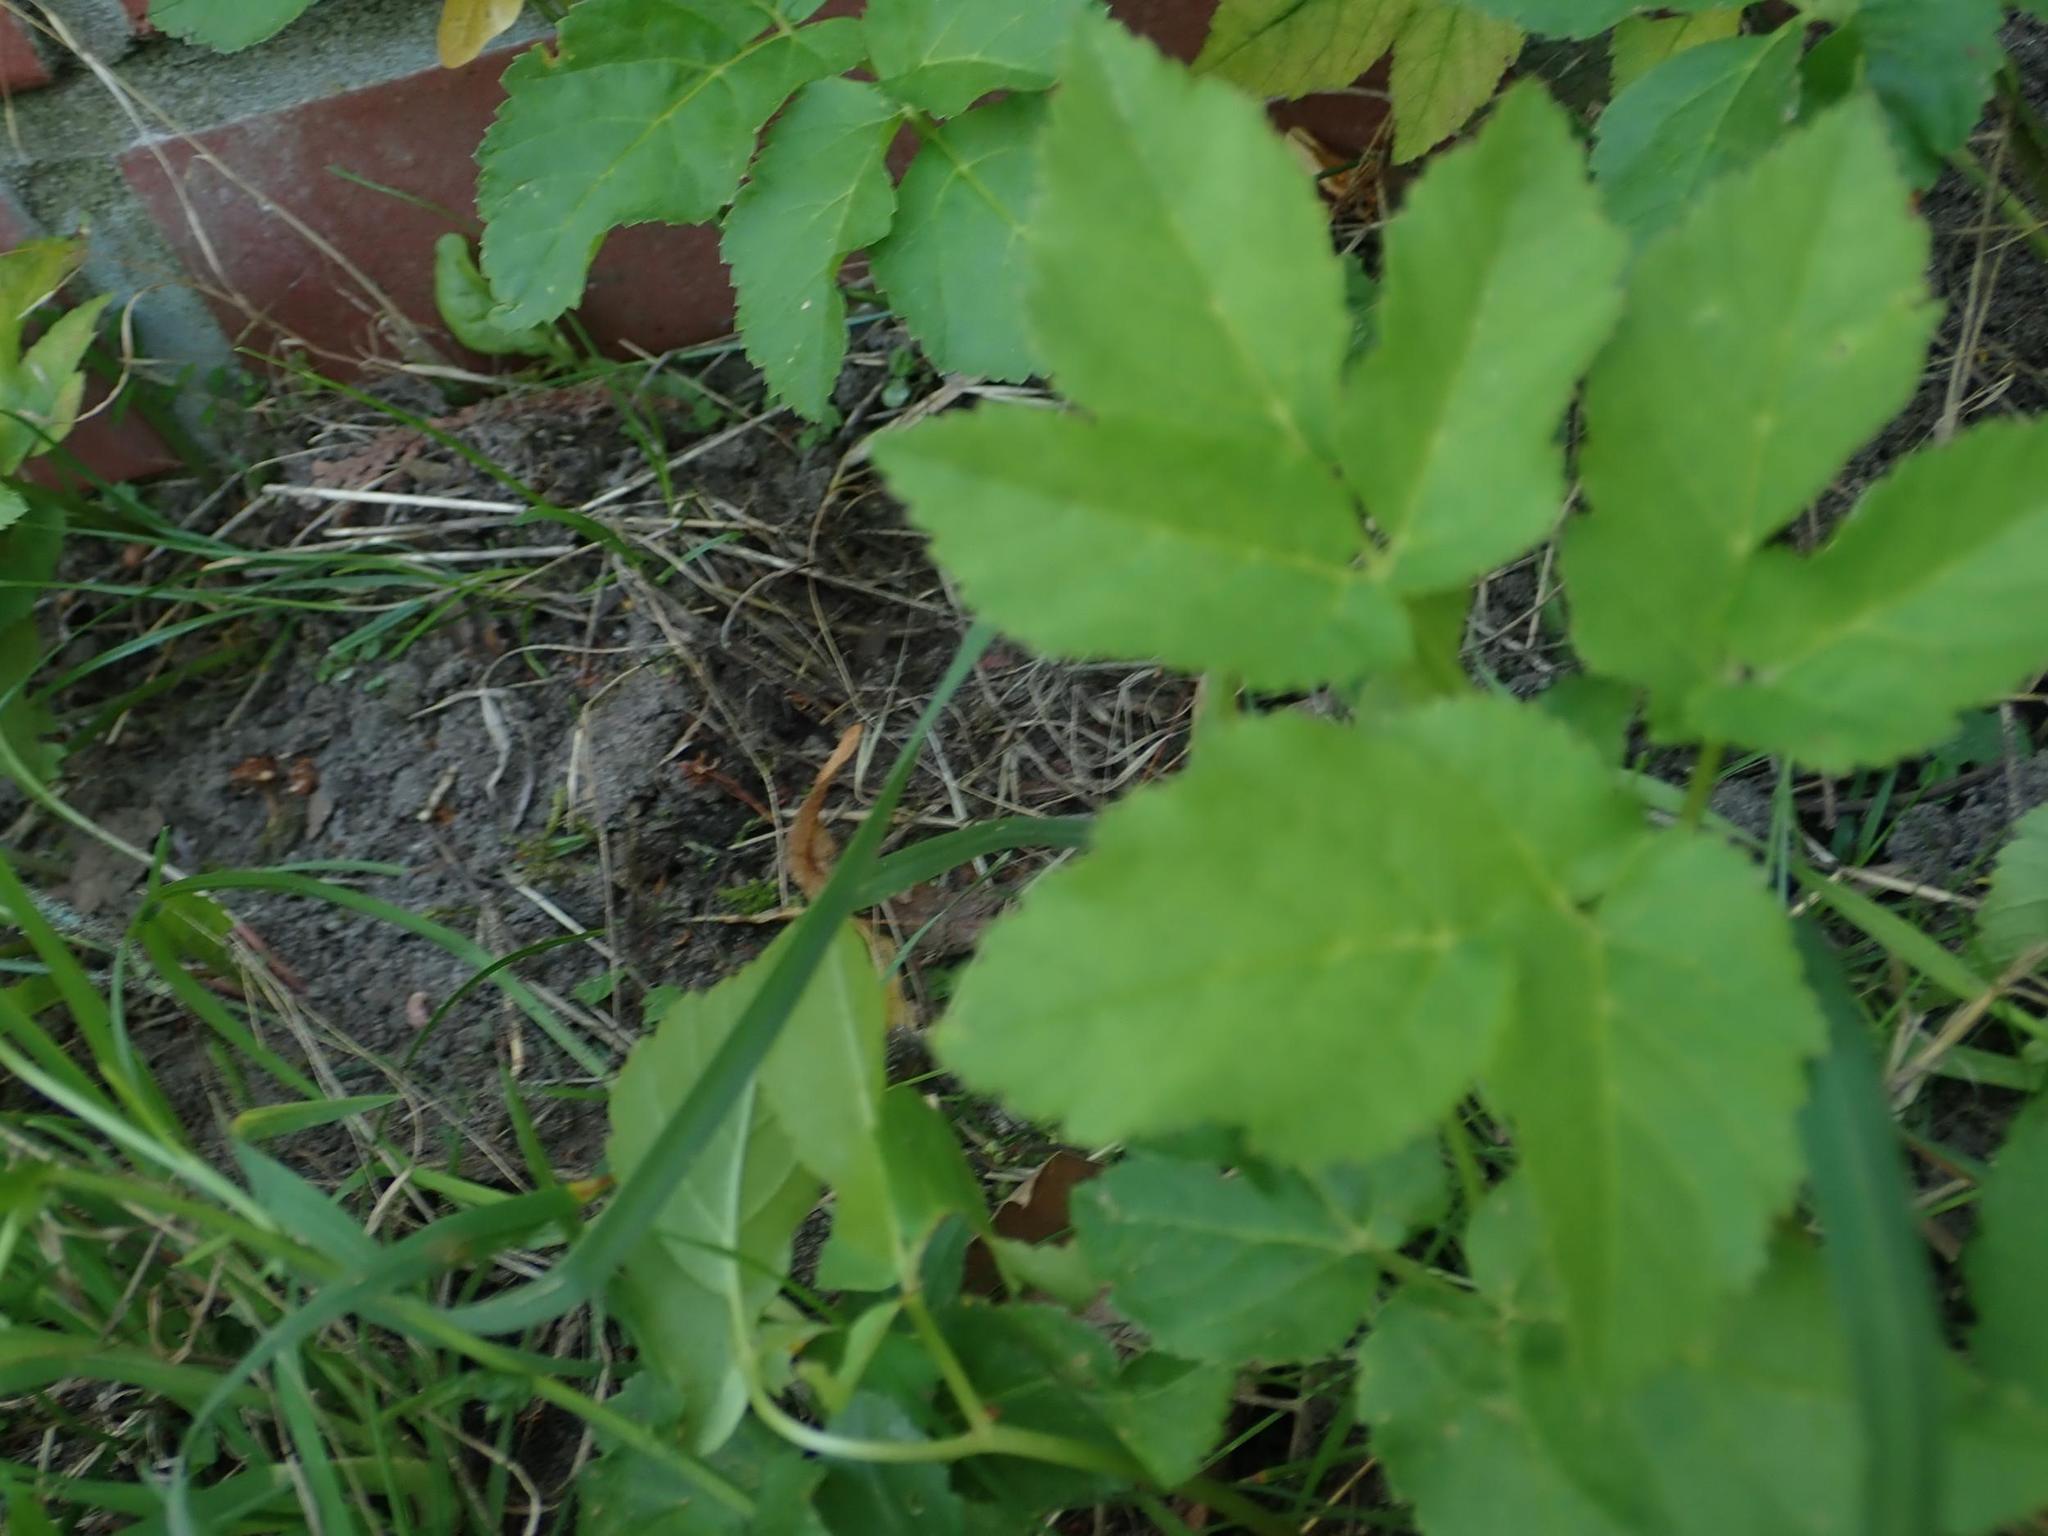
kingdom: Plantae
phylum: Tracheophyta
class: Magnoliopsida
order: Apiales
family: Apiaceae
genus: Aegopodium
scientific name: Aegopodium podagraria
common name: Ground-elder
